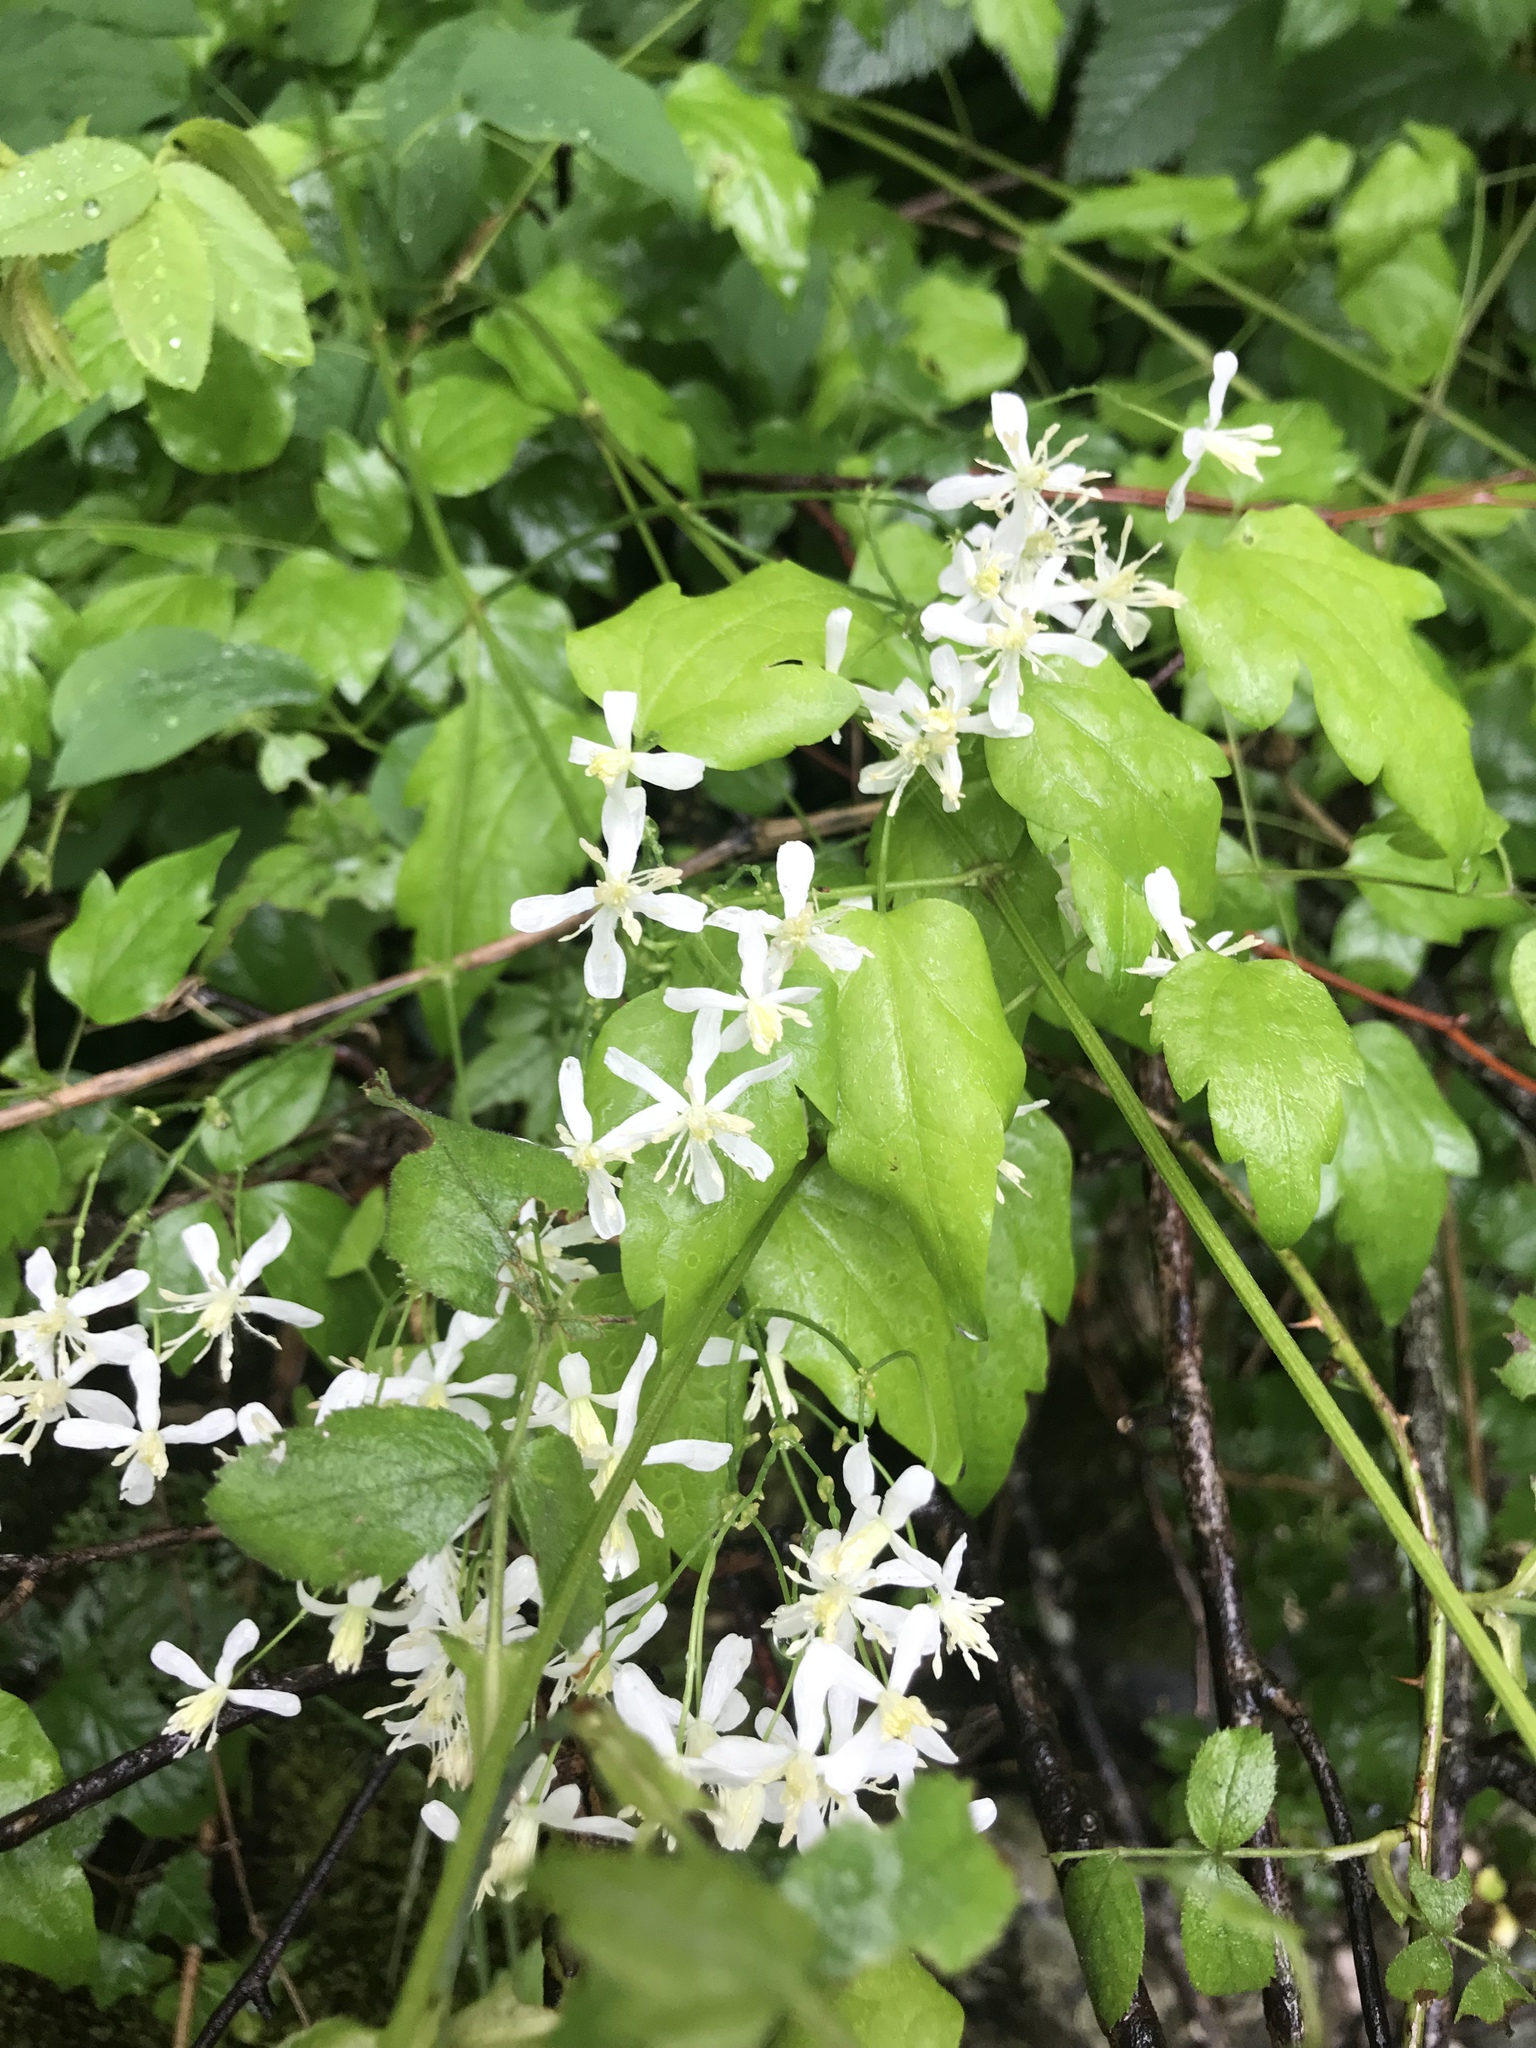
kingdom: Plantae
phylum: Tracheophyta
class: Magnoliopsida
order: Ranunculales
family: Ranunculaceae
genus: Clematis
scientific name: Clematis vitalba
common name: Evergreen clematis
